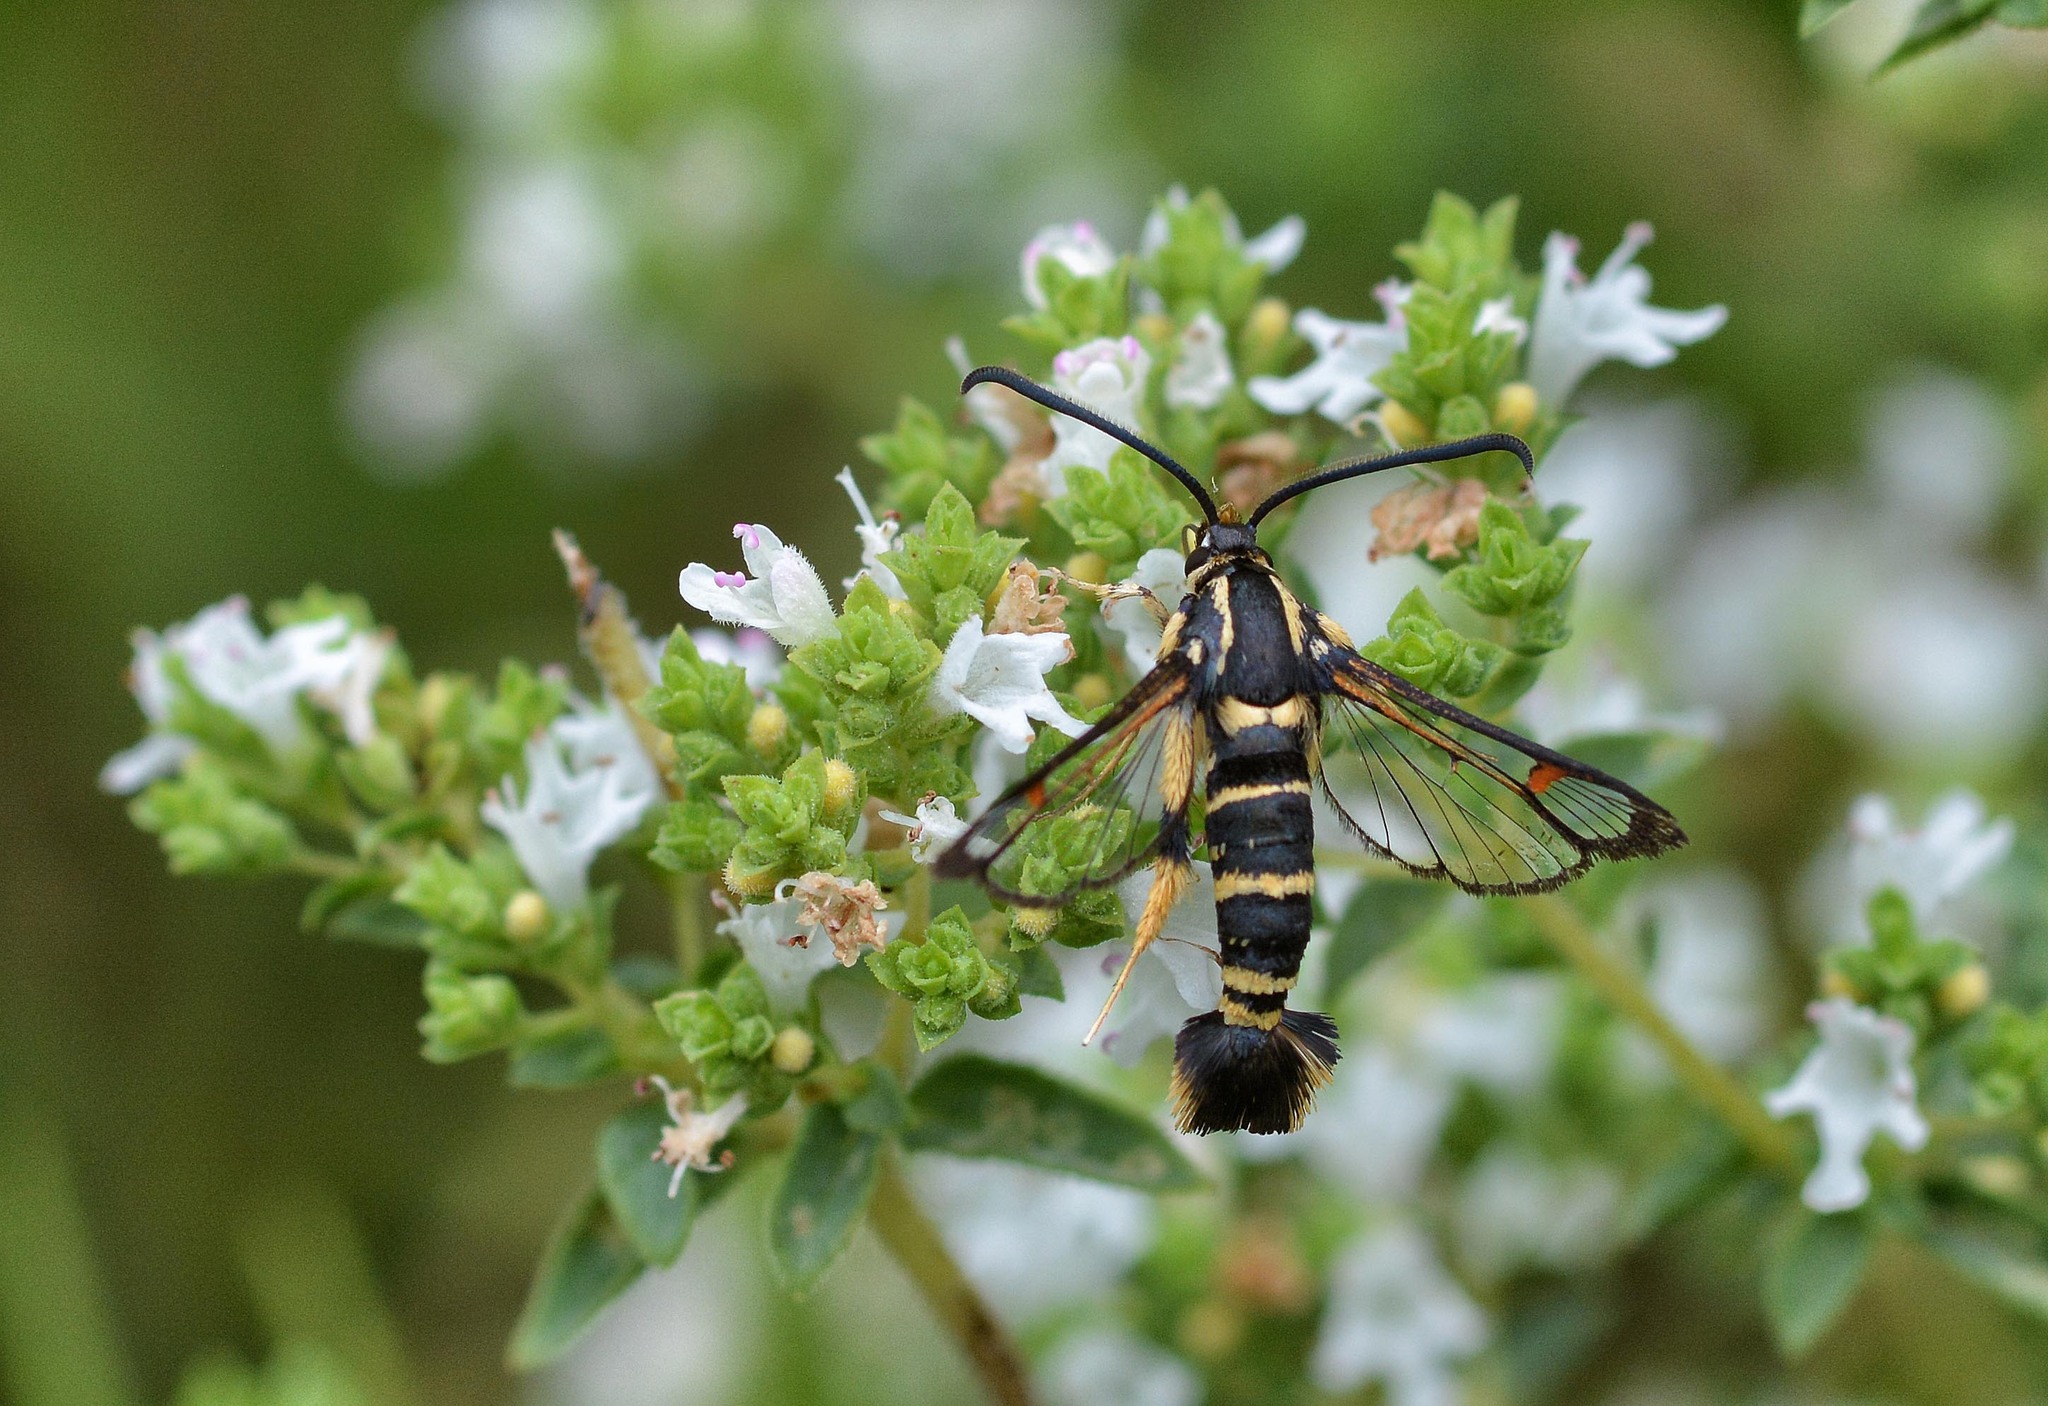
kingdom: Animalia
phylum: Arthropoda
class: Insecta
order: Lepidoptera
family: Sesiidae
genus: Synanthedon
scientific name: Synanthedon vespiformis
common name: Yellow-legged clearwing
